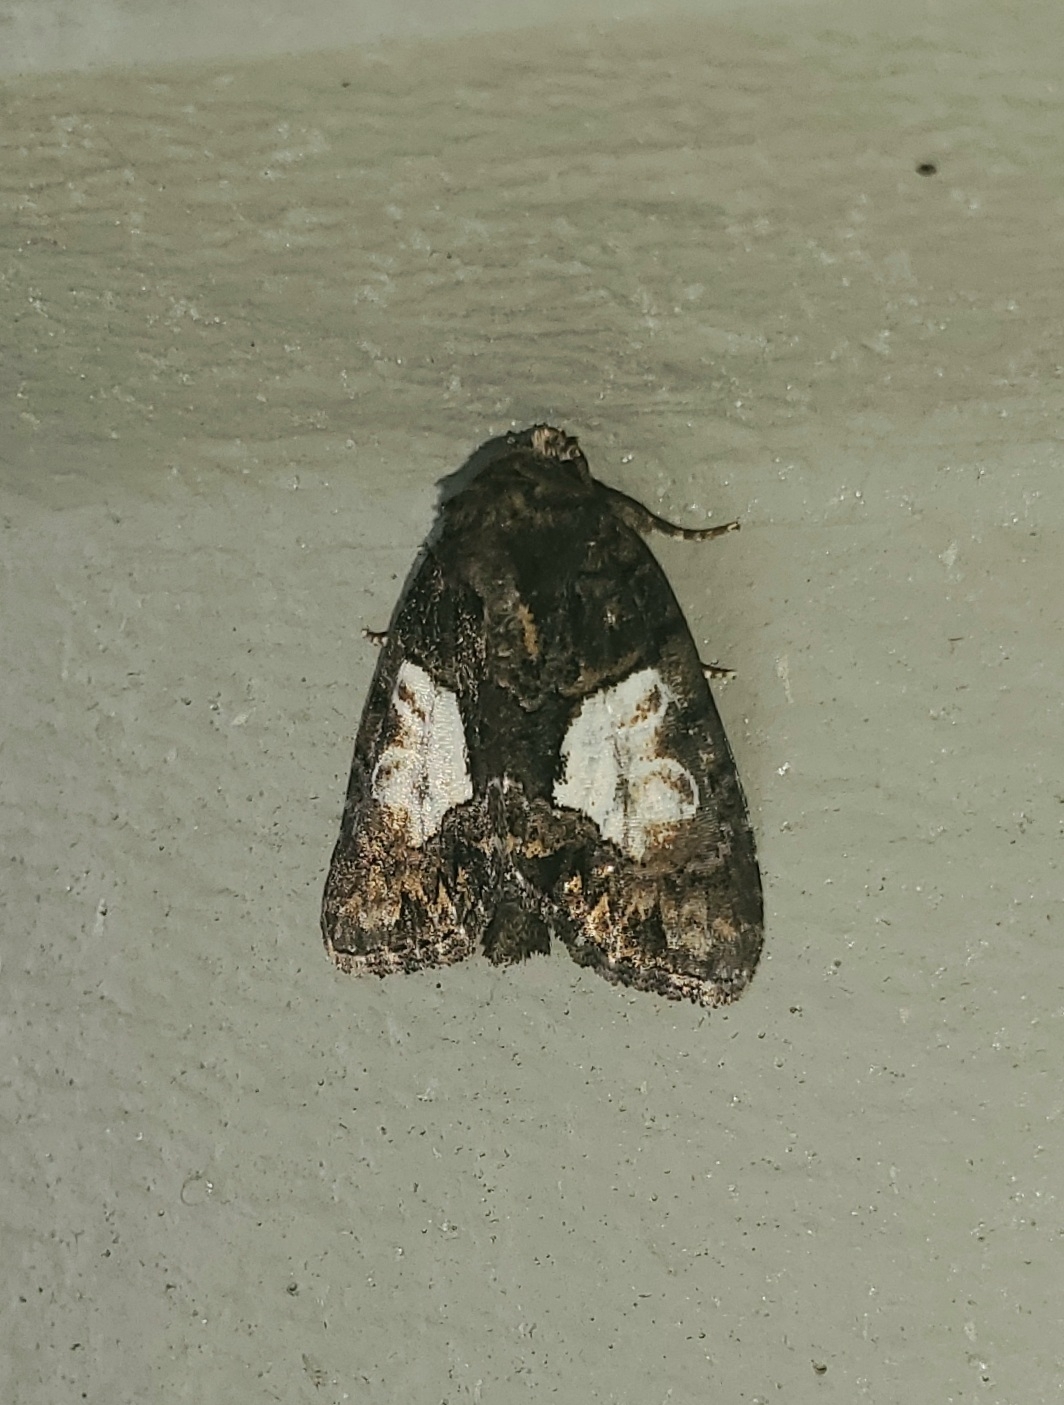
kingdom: Animalia
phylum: Arthropoda
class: Insecta
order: Lepidoptera
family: Noctuidae
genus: Chytonix
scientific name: Chytonix palliatricula
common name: Cloaked marvel
